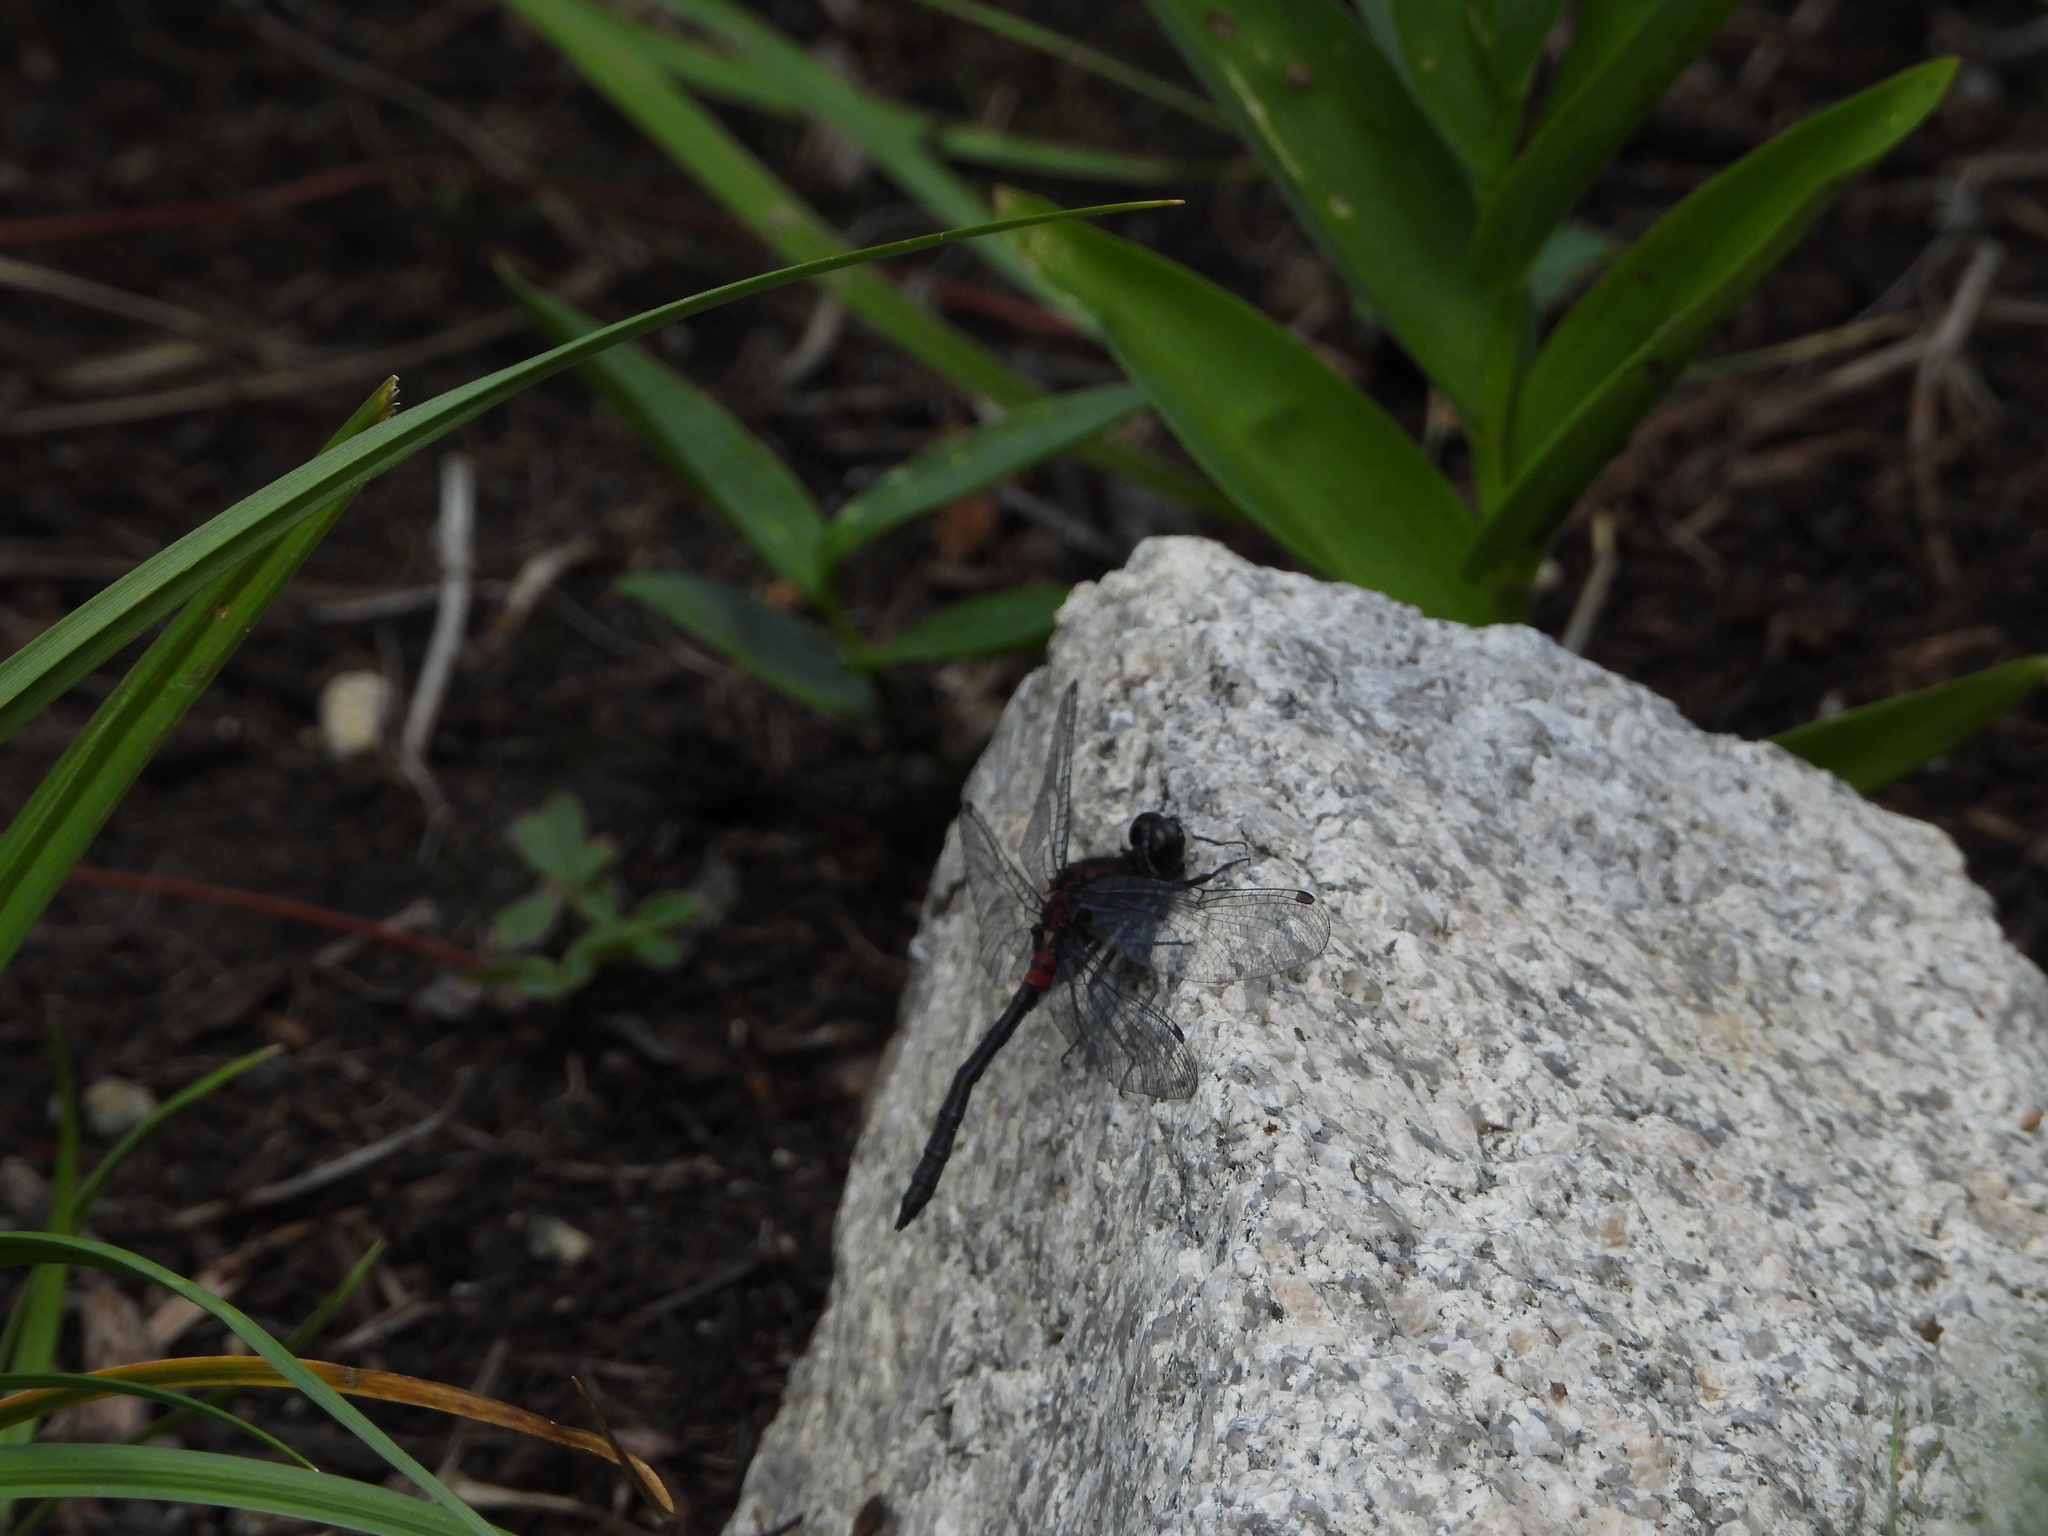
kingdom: Animalia
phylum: Arthropoda
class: Insecta
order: Odonata
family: Libellulidae
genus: Leucorrhinia
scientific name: Leucorrhinia proxima
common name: Belted whiteface
